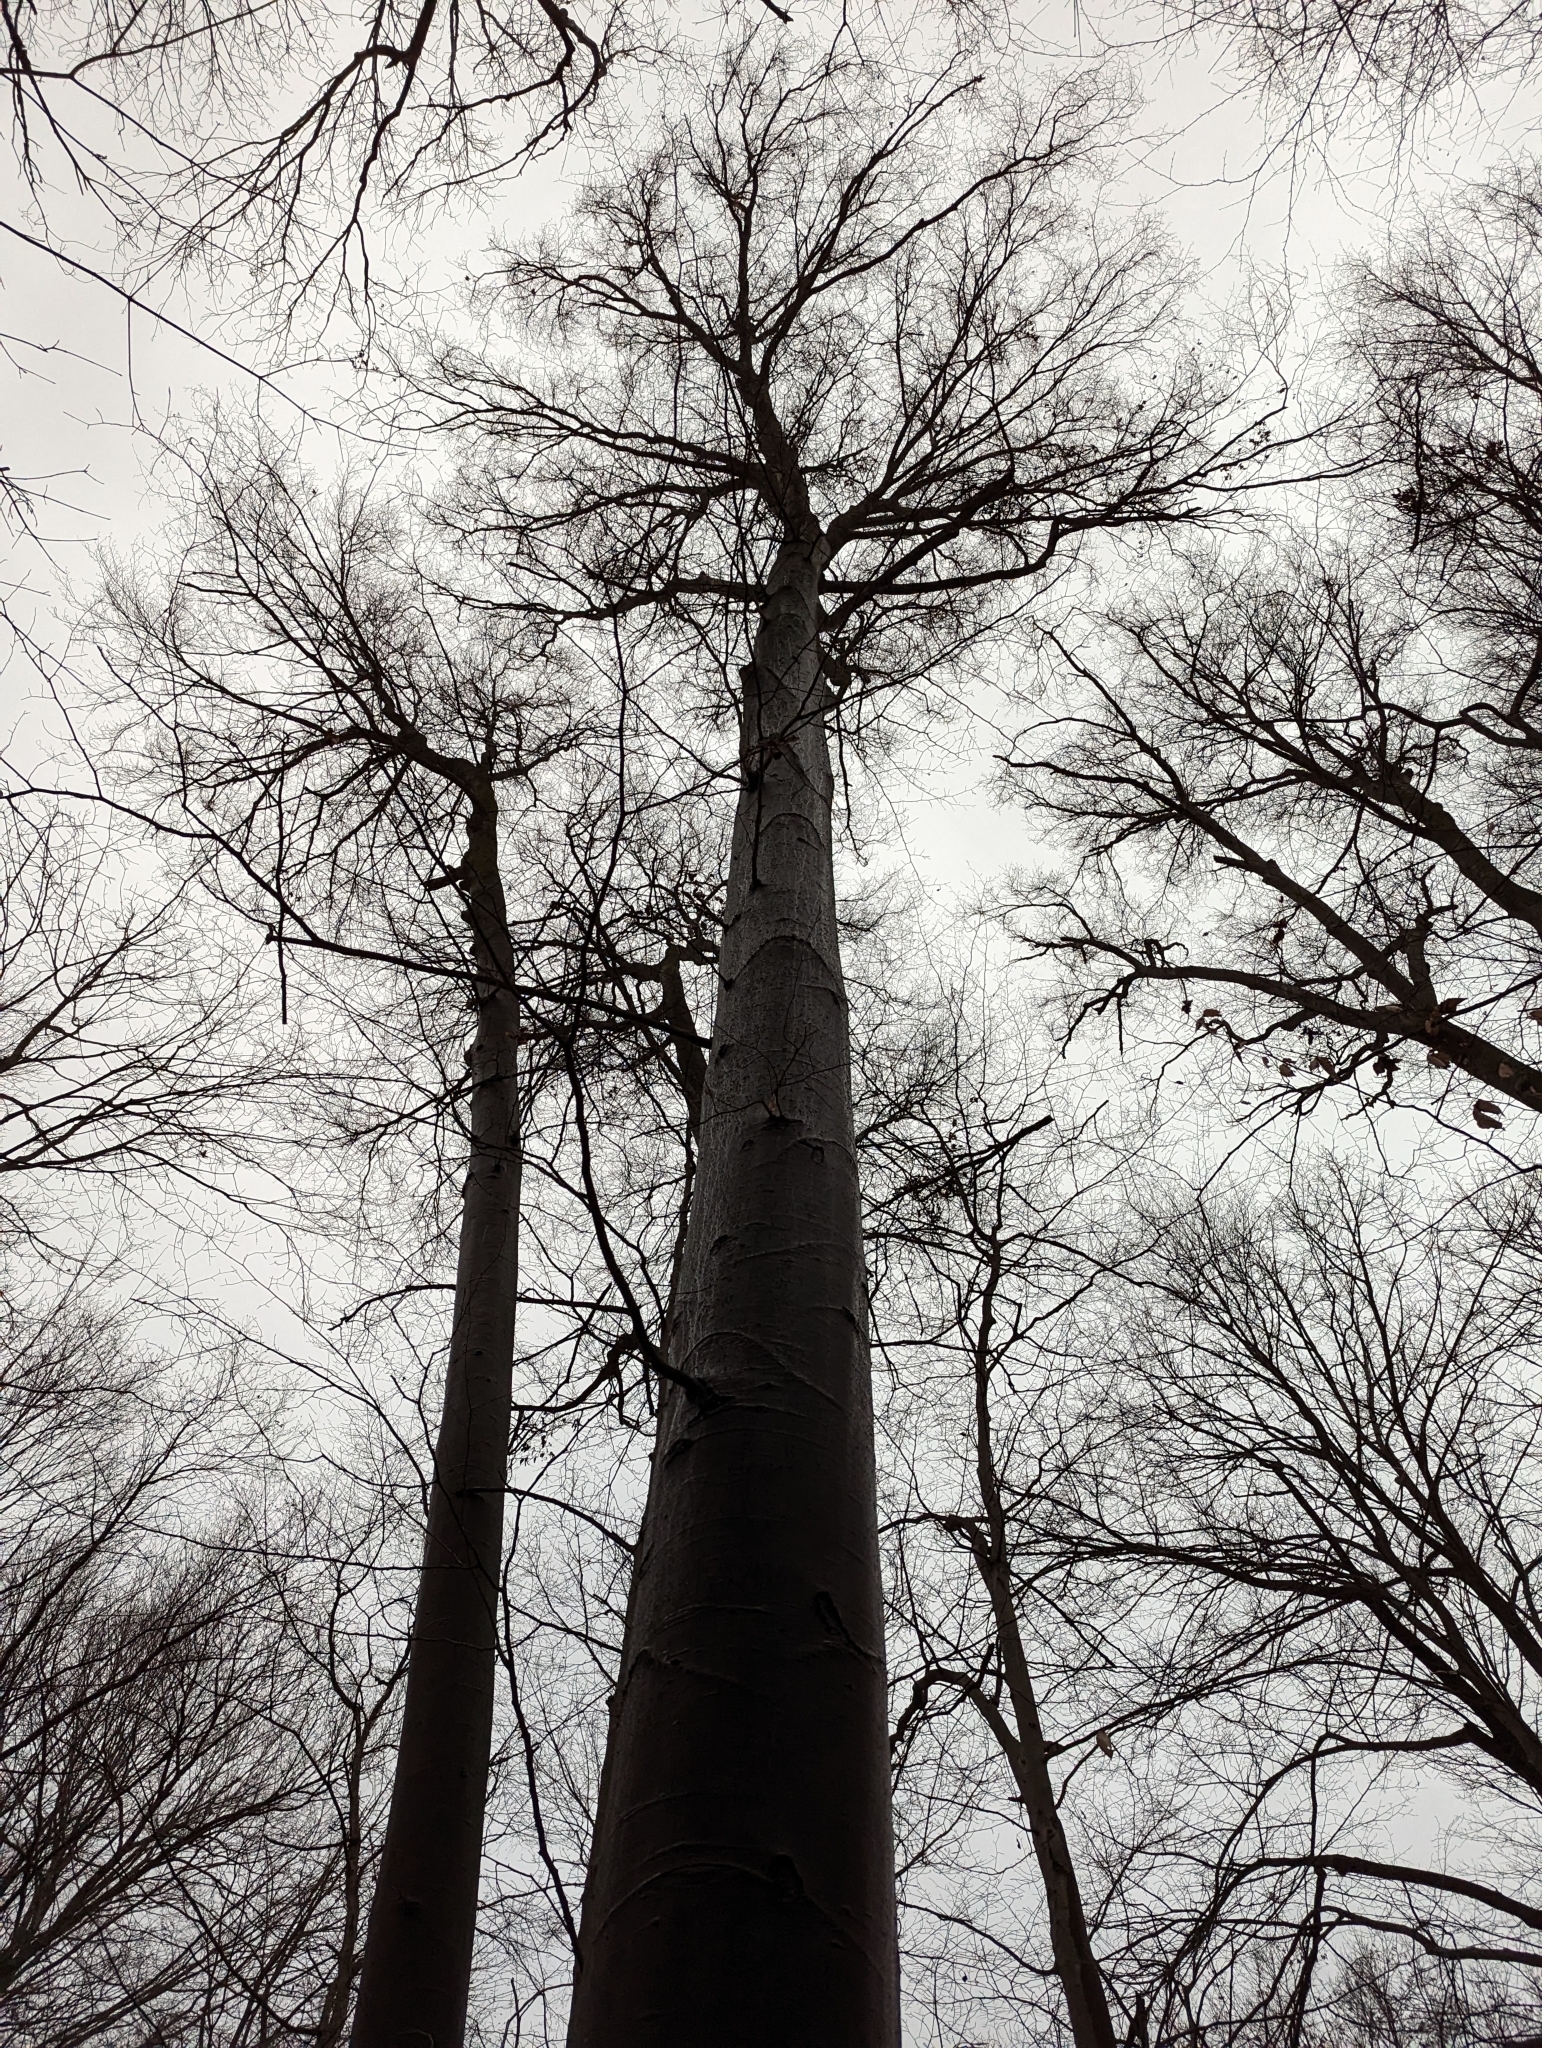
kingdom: Plantae
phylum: Tracheophyta
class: Magnoliopsida
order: Fagales
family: Fagaceae
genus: Fagus
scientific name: Fagus grandifolia
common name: American beech
